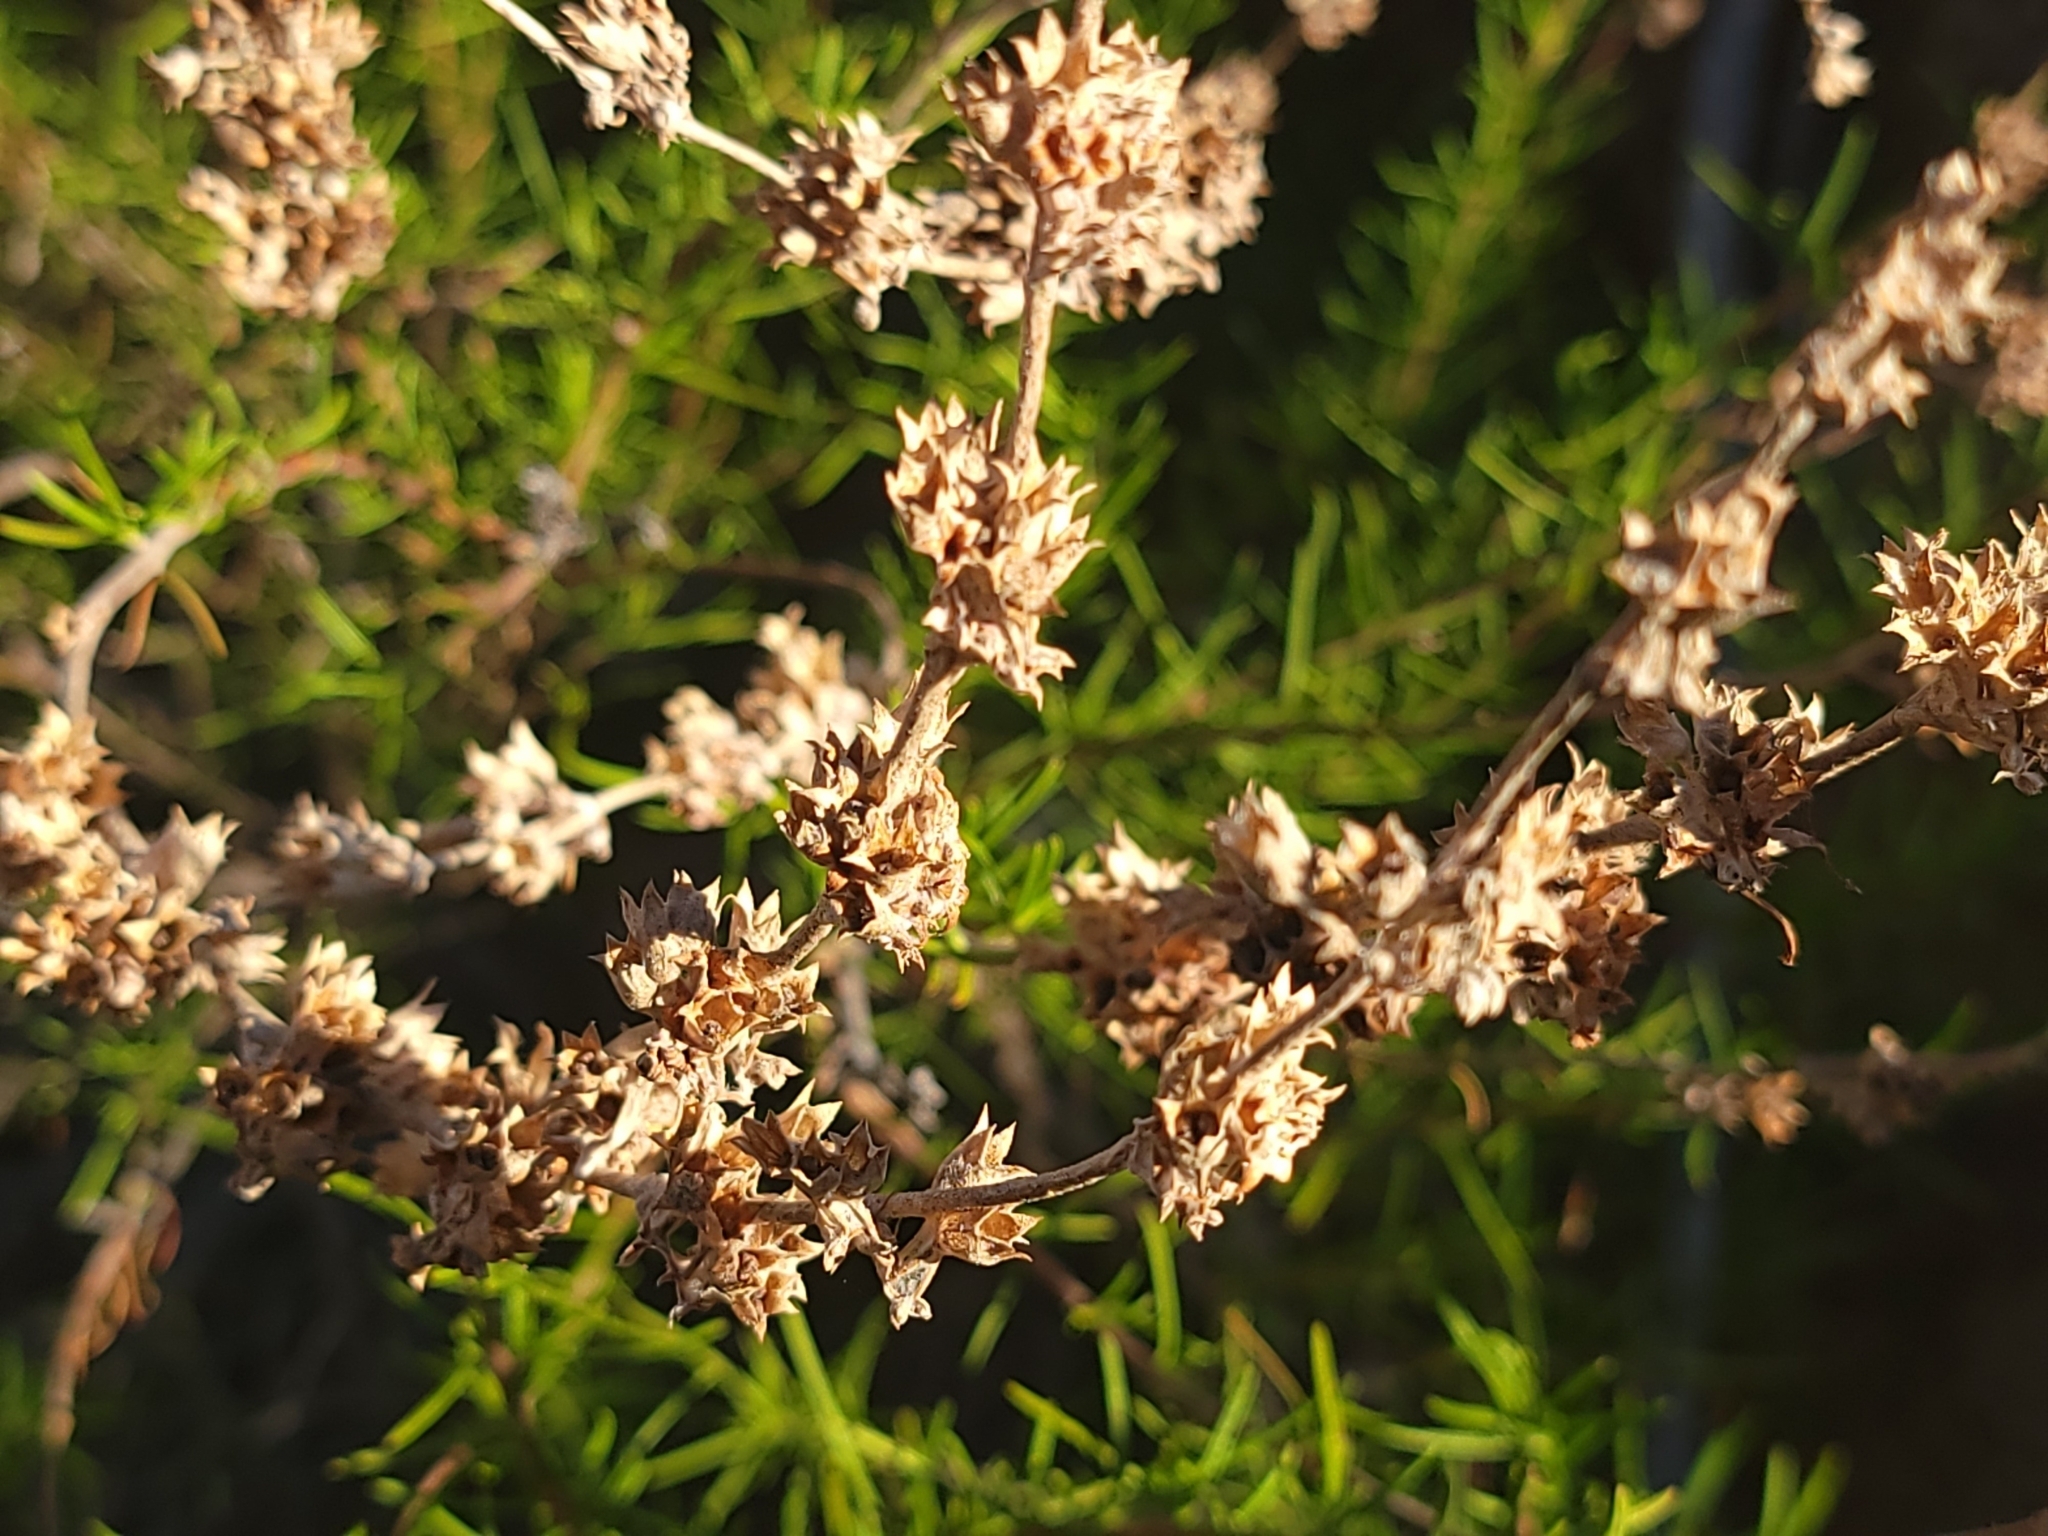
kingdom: Plantae
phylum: Tracheophyta
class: Magnoliopsida
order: Lamiales
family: Lamiaceae
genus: Trichostema
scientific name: Trichostema lanatum
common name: Woolly bluecurls
